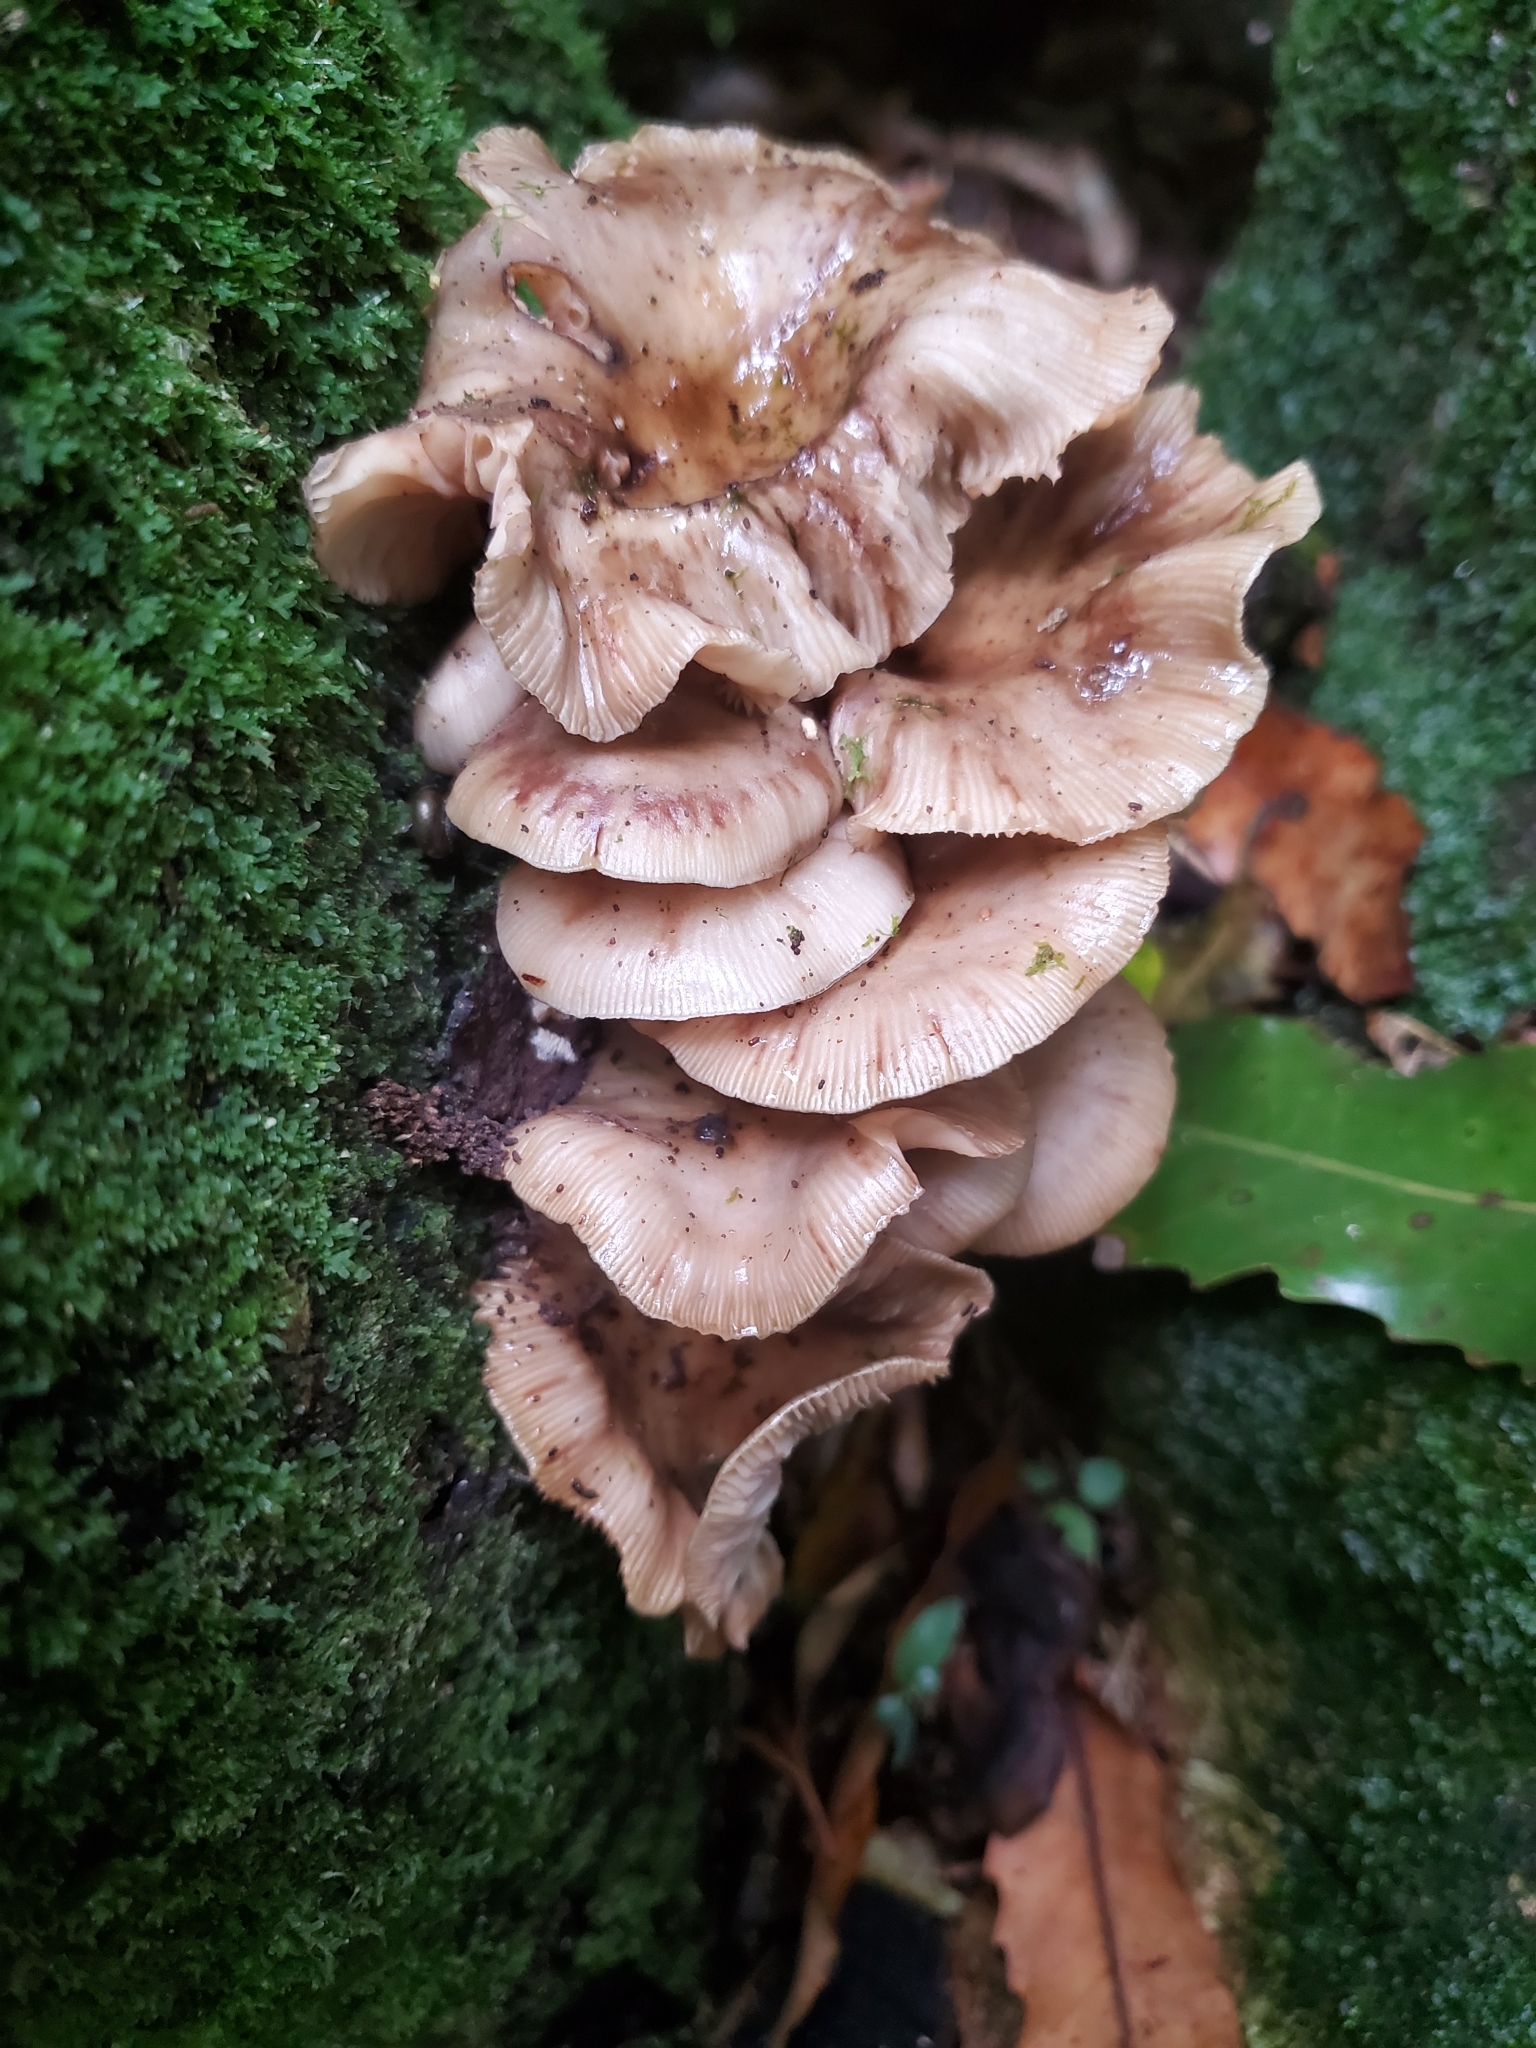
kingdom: Fungi
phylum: Basidiomycota
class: Agaricomycetes
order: Agaricales
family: Physalacriaceae
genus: Armillaria
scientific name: Armillaria novae-zelandiae
